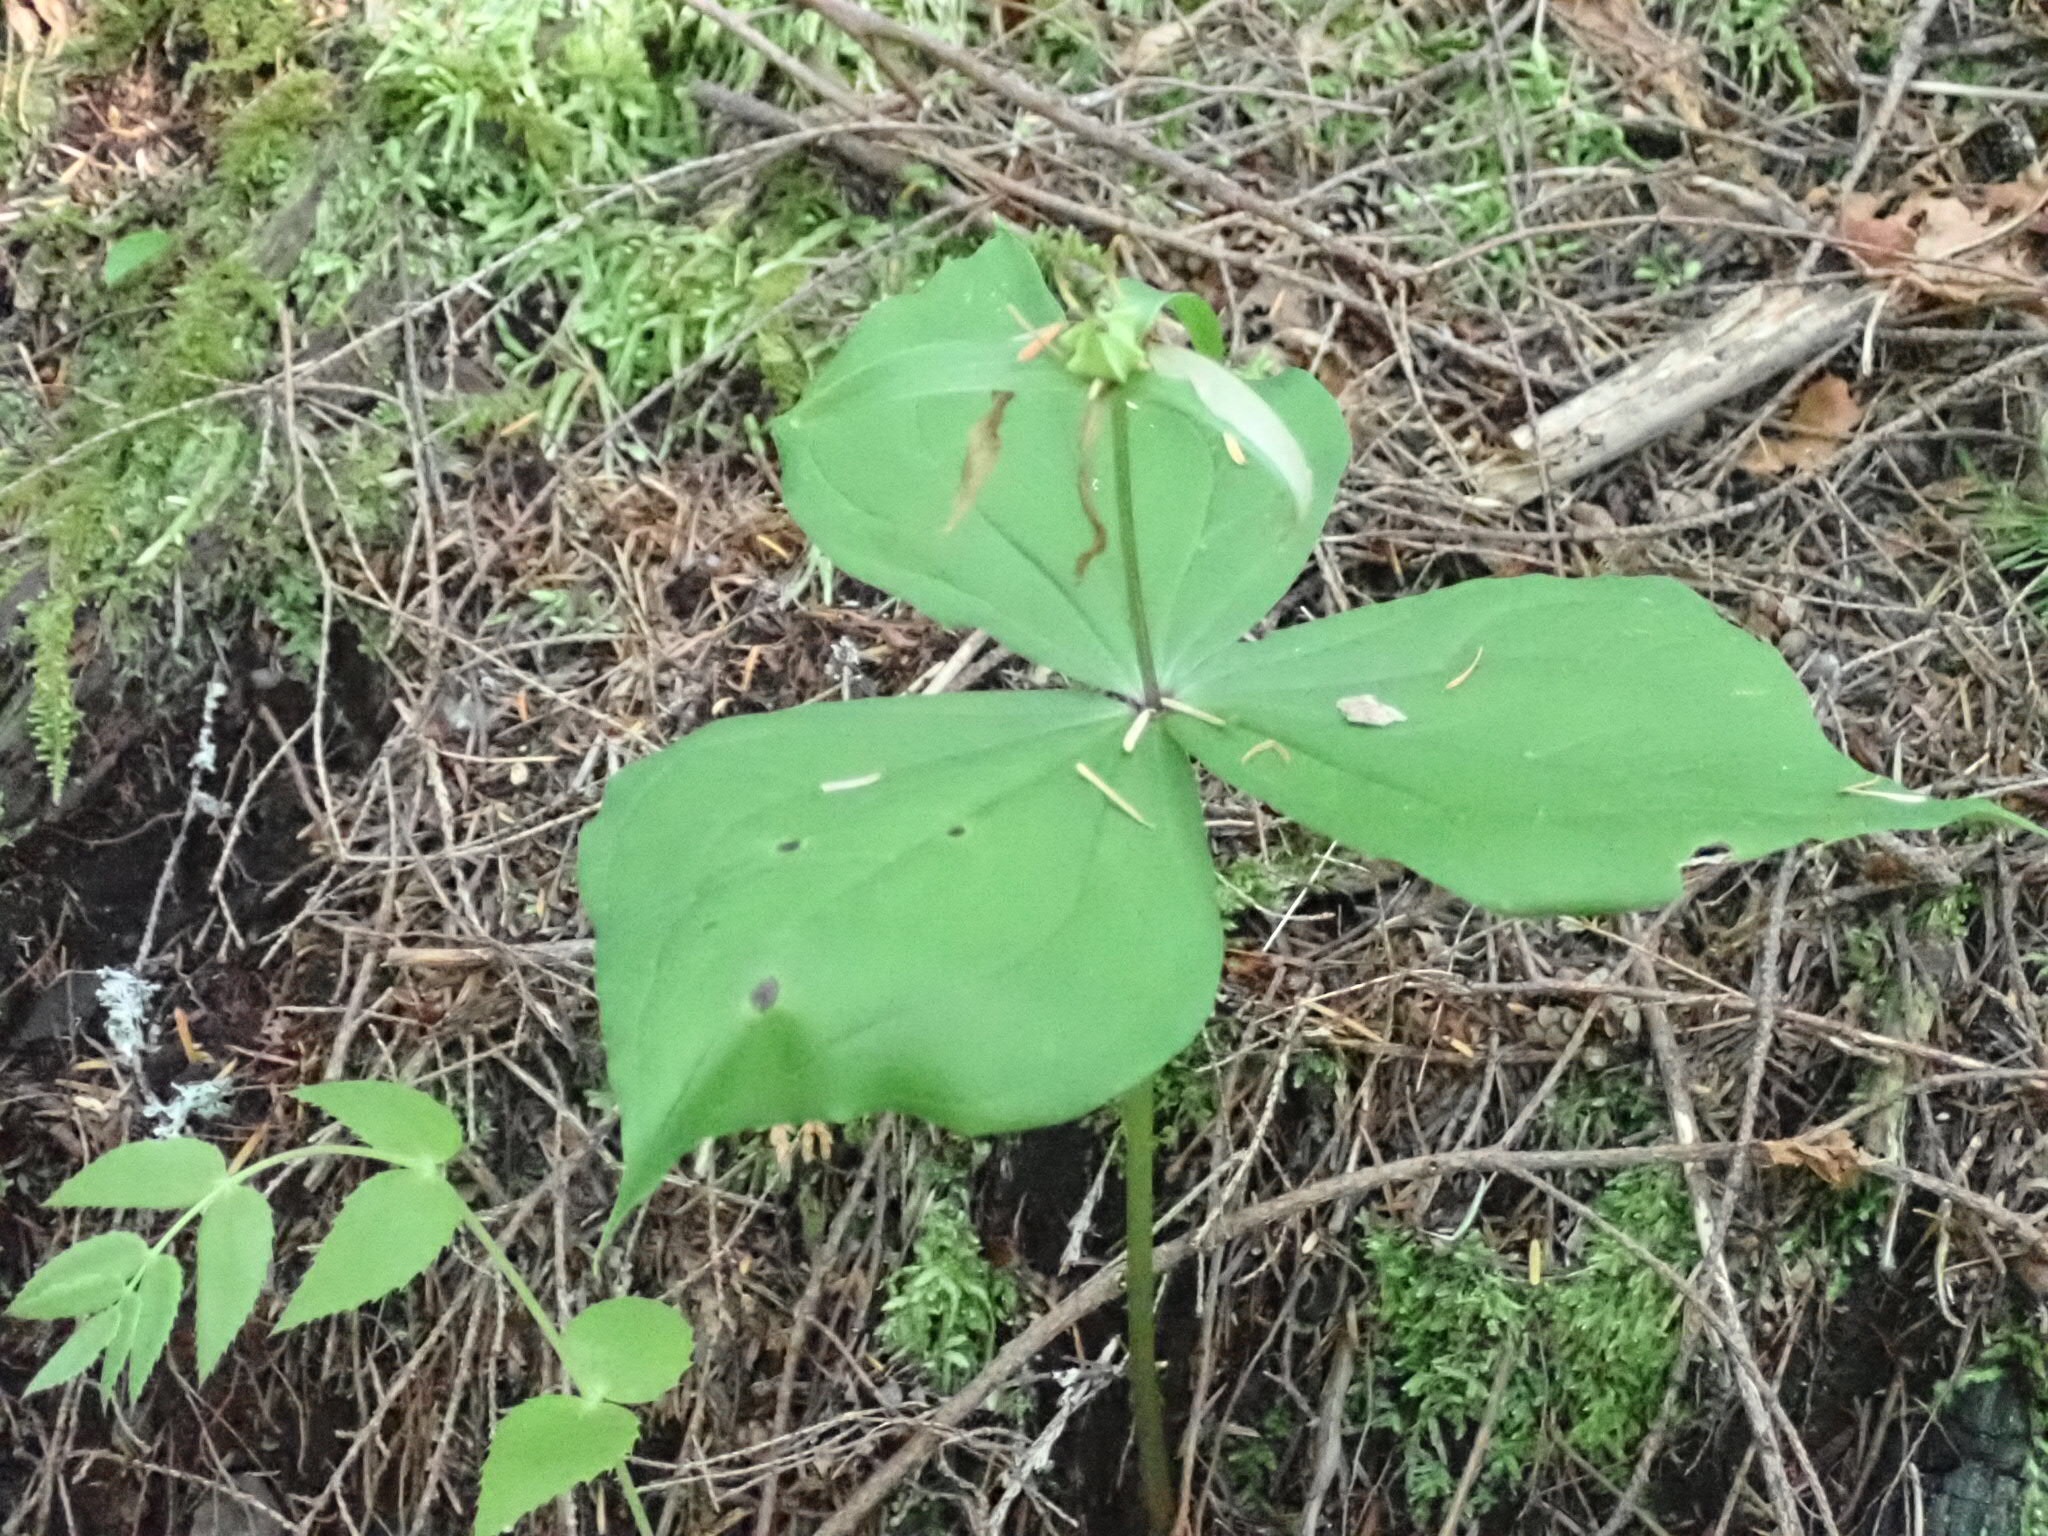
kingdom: Plantae
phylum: Tracheophyta
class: Liliopsida
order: Liliales
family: Melanthiaceae
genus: Trillium
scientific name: Trillium ovatum
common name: Pacific trillium
